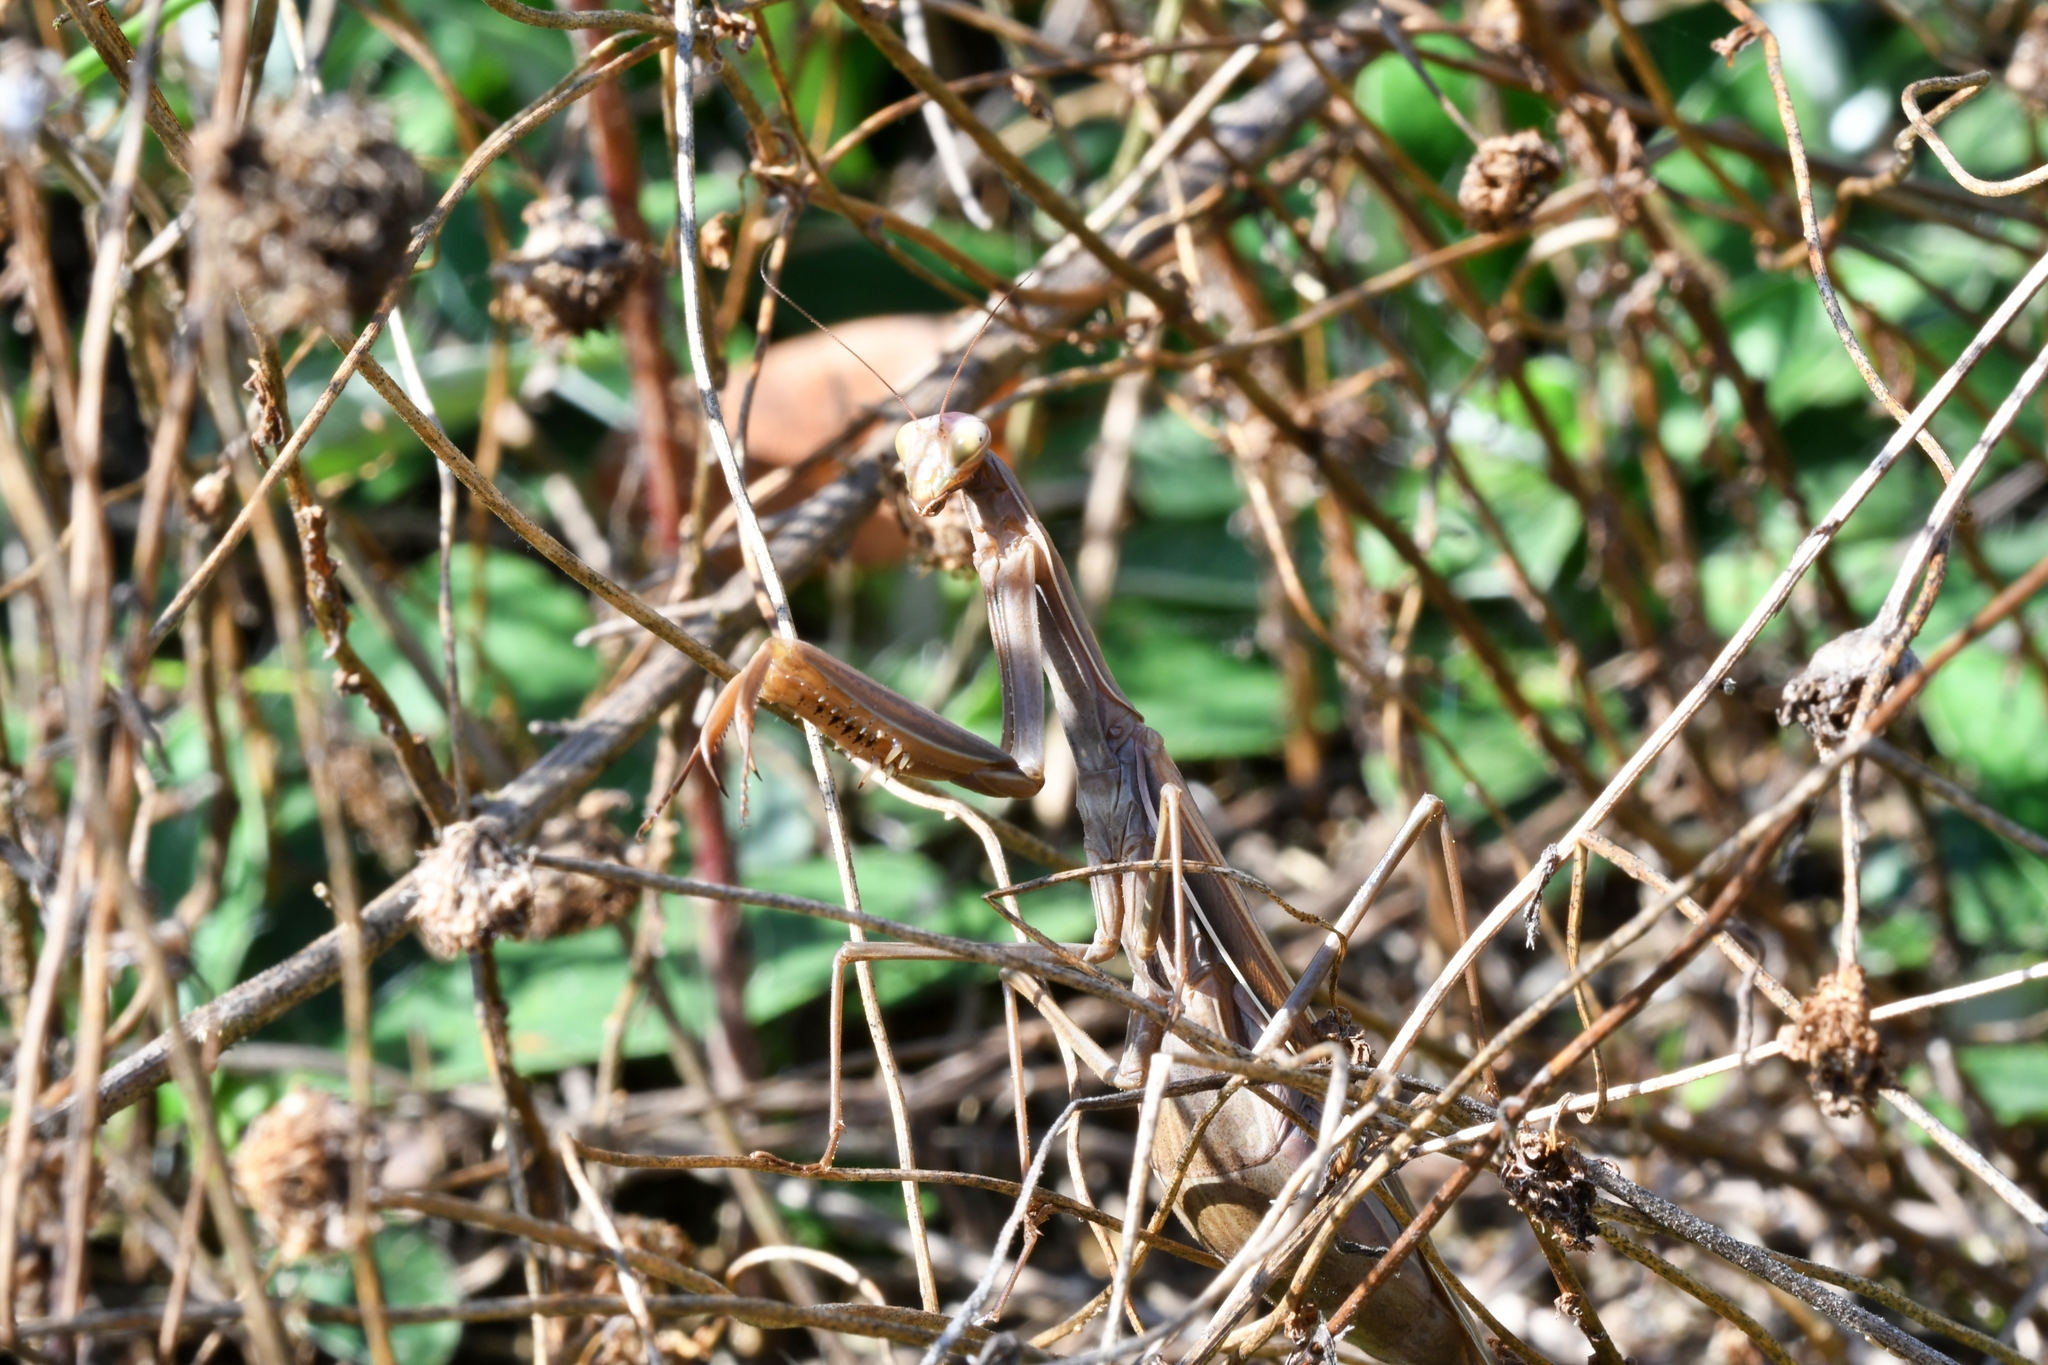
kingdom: Animalia
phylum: Arthropoda
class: Insecta
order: Mantodea
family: Mantidae
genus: Mantis
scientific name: Mantis religiosa
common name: Praying mantis
